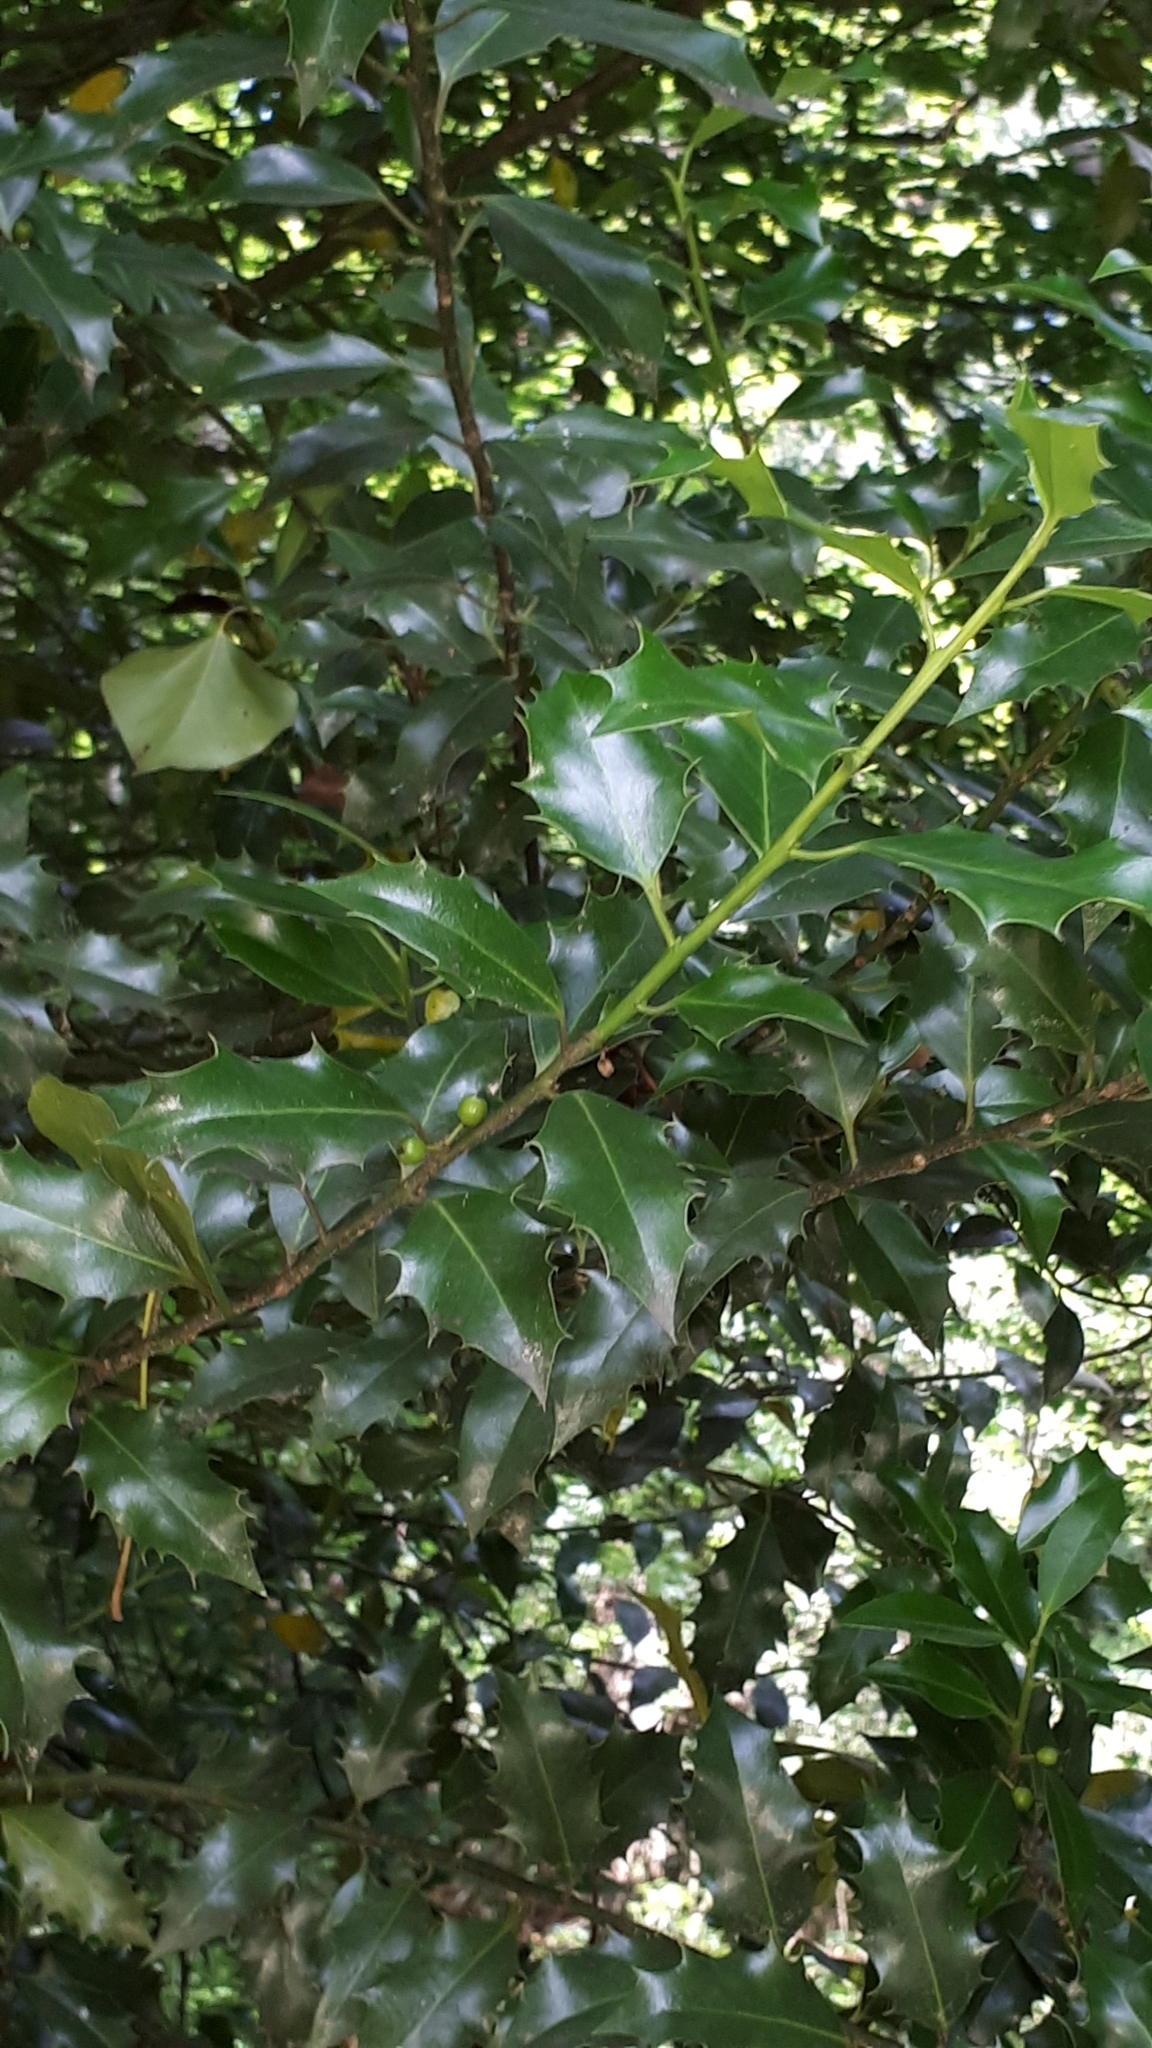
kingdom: Plantae
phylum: Tracheophyta
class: Magnoliopsida
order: Aquifoliales
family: Aquifoliaceae
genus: Ilex
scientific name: Ilex aquifolium
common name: English holly
